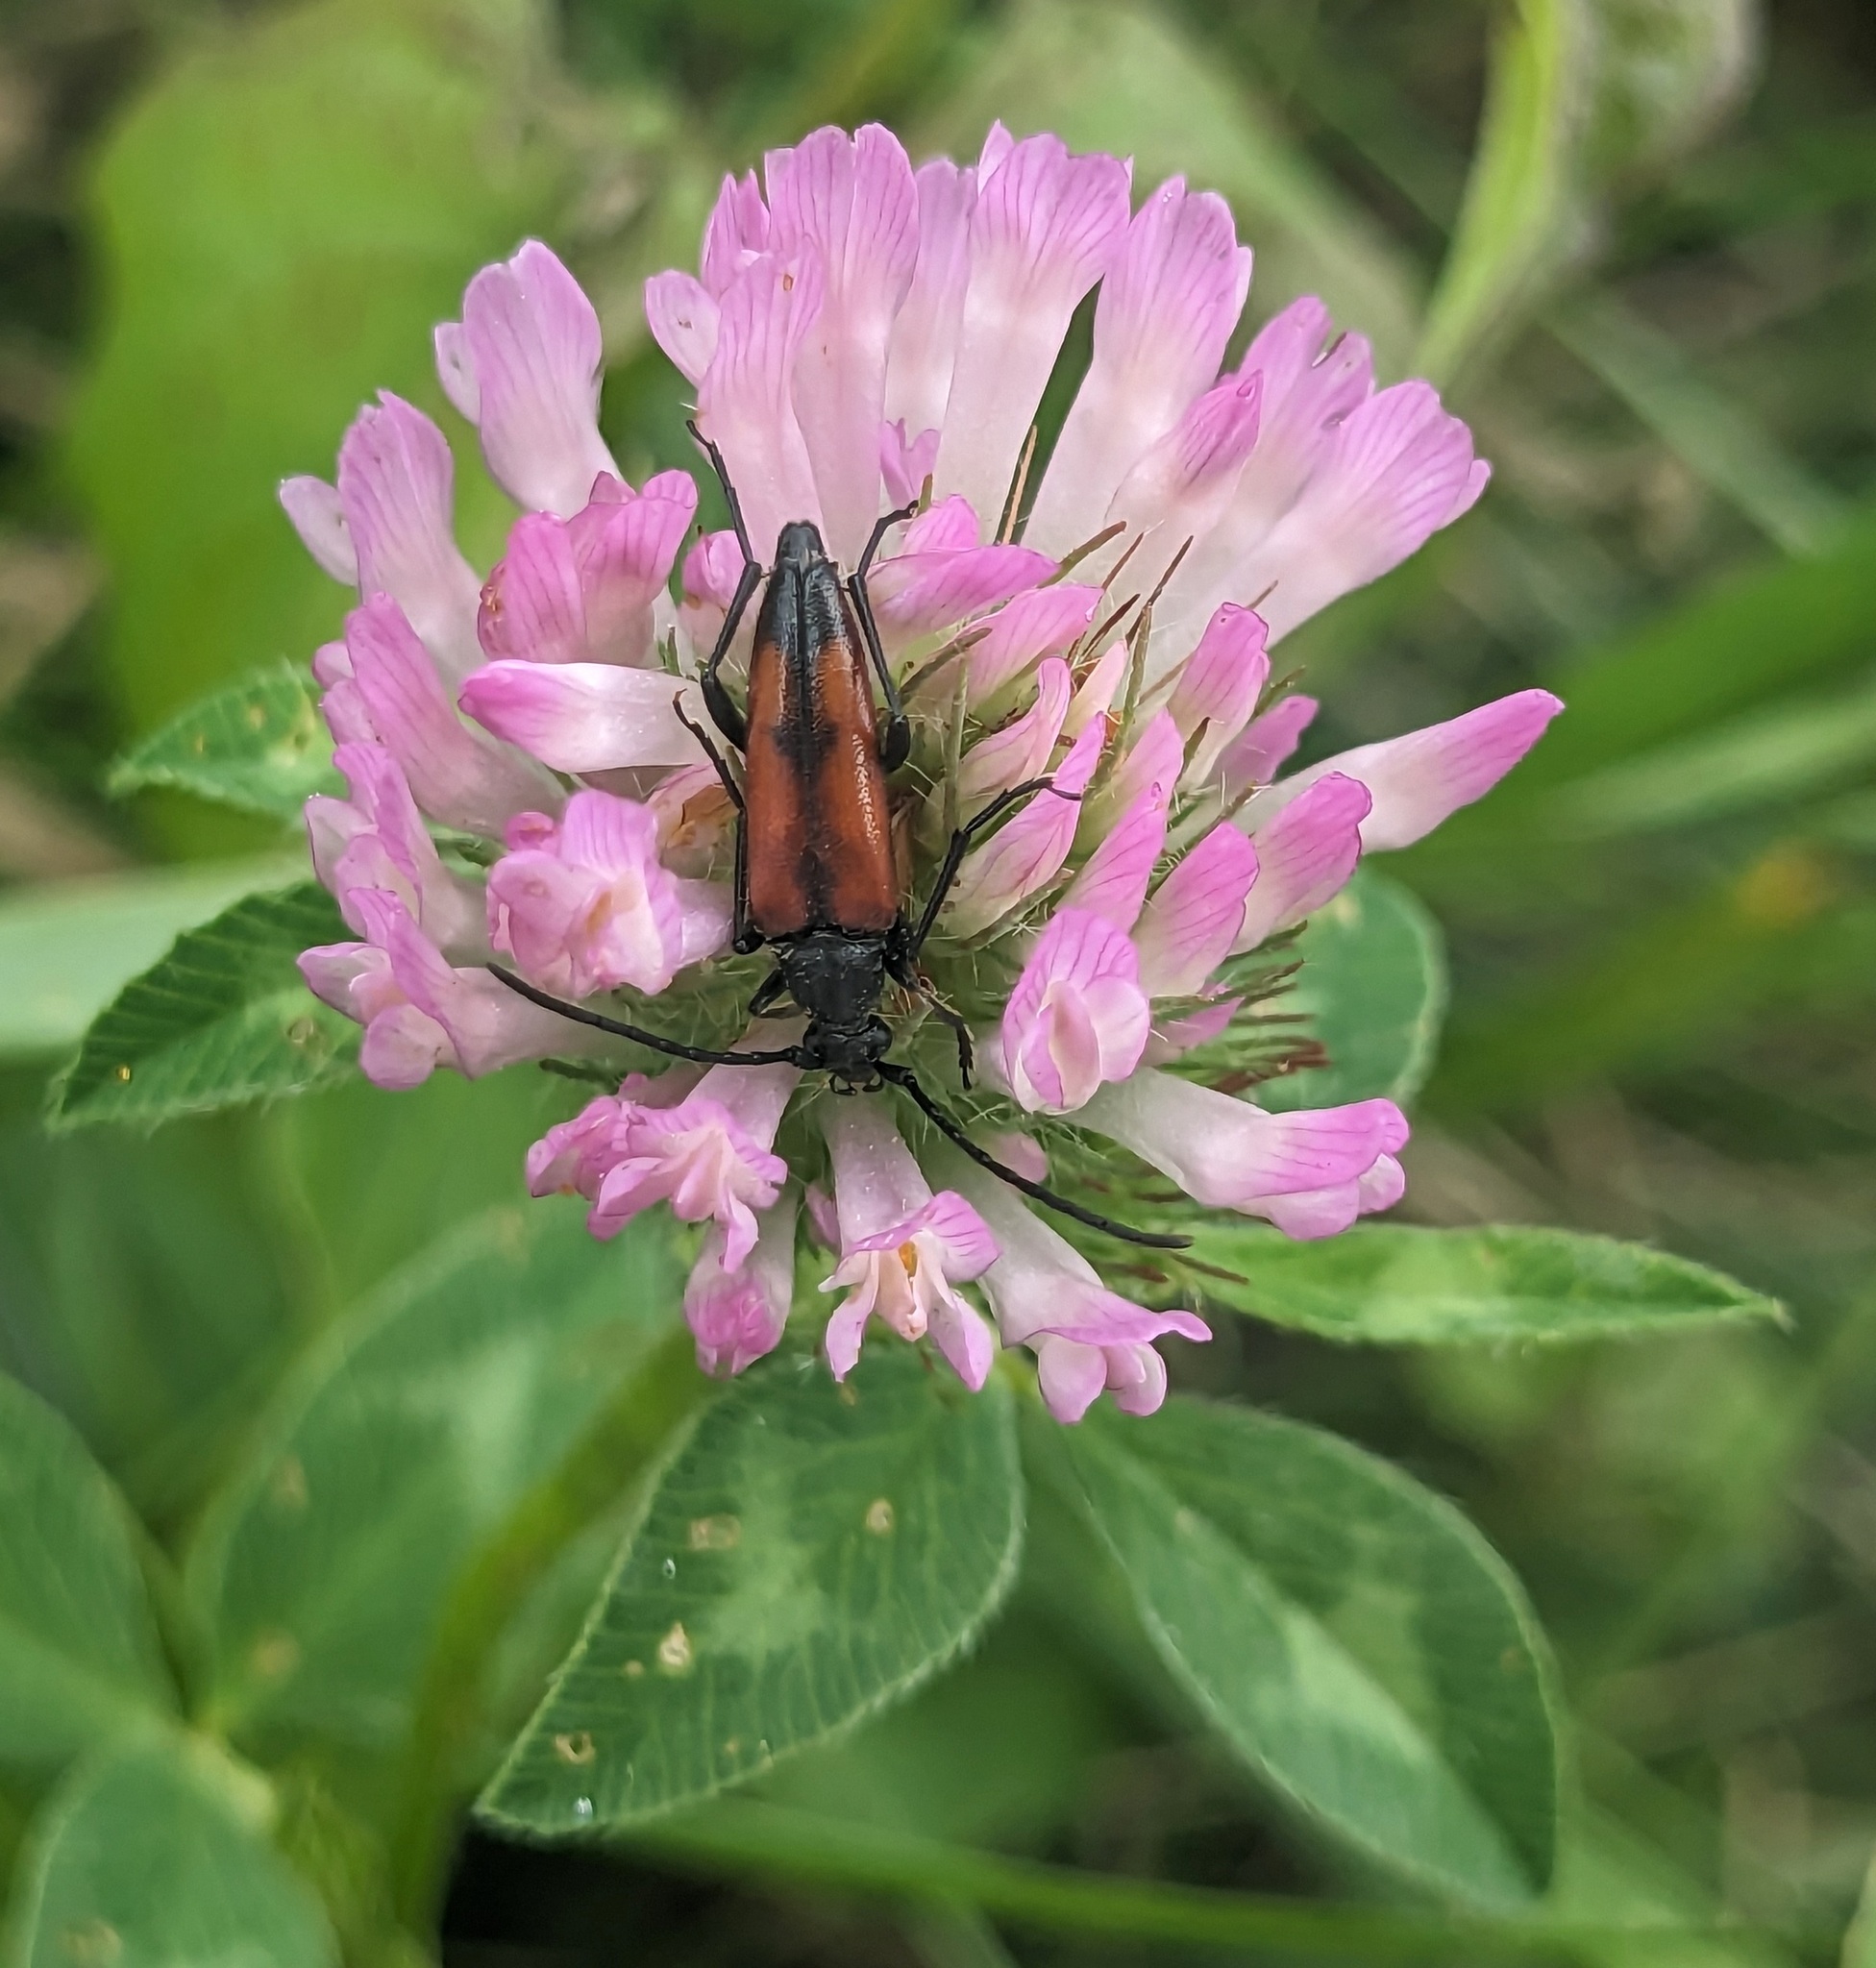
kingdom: Animalia
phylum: Arthropoda
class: Insecta
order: Coleoptera
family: Cerambycidae
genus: Stenurella
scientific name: Stenurella bifasciata
